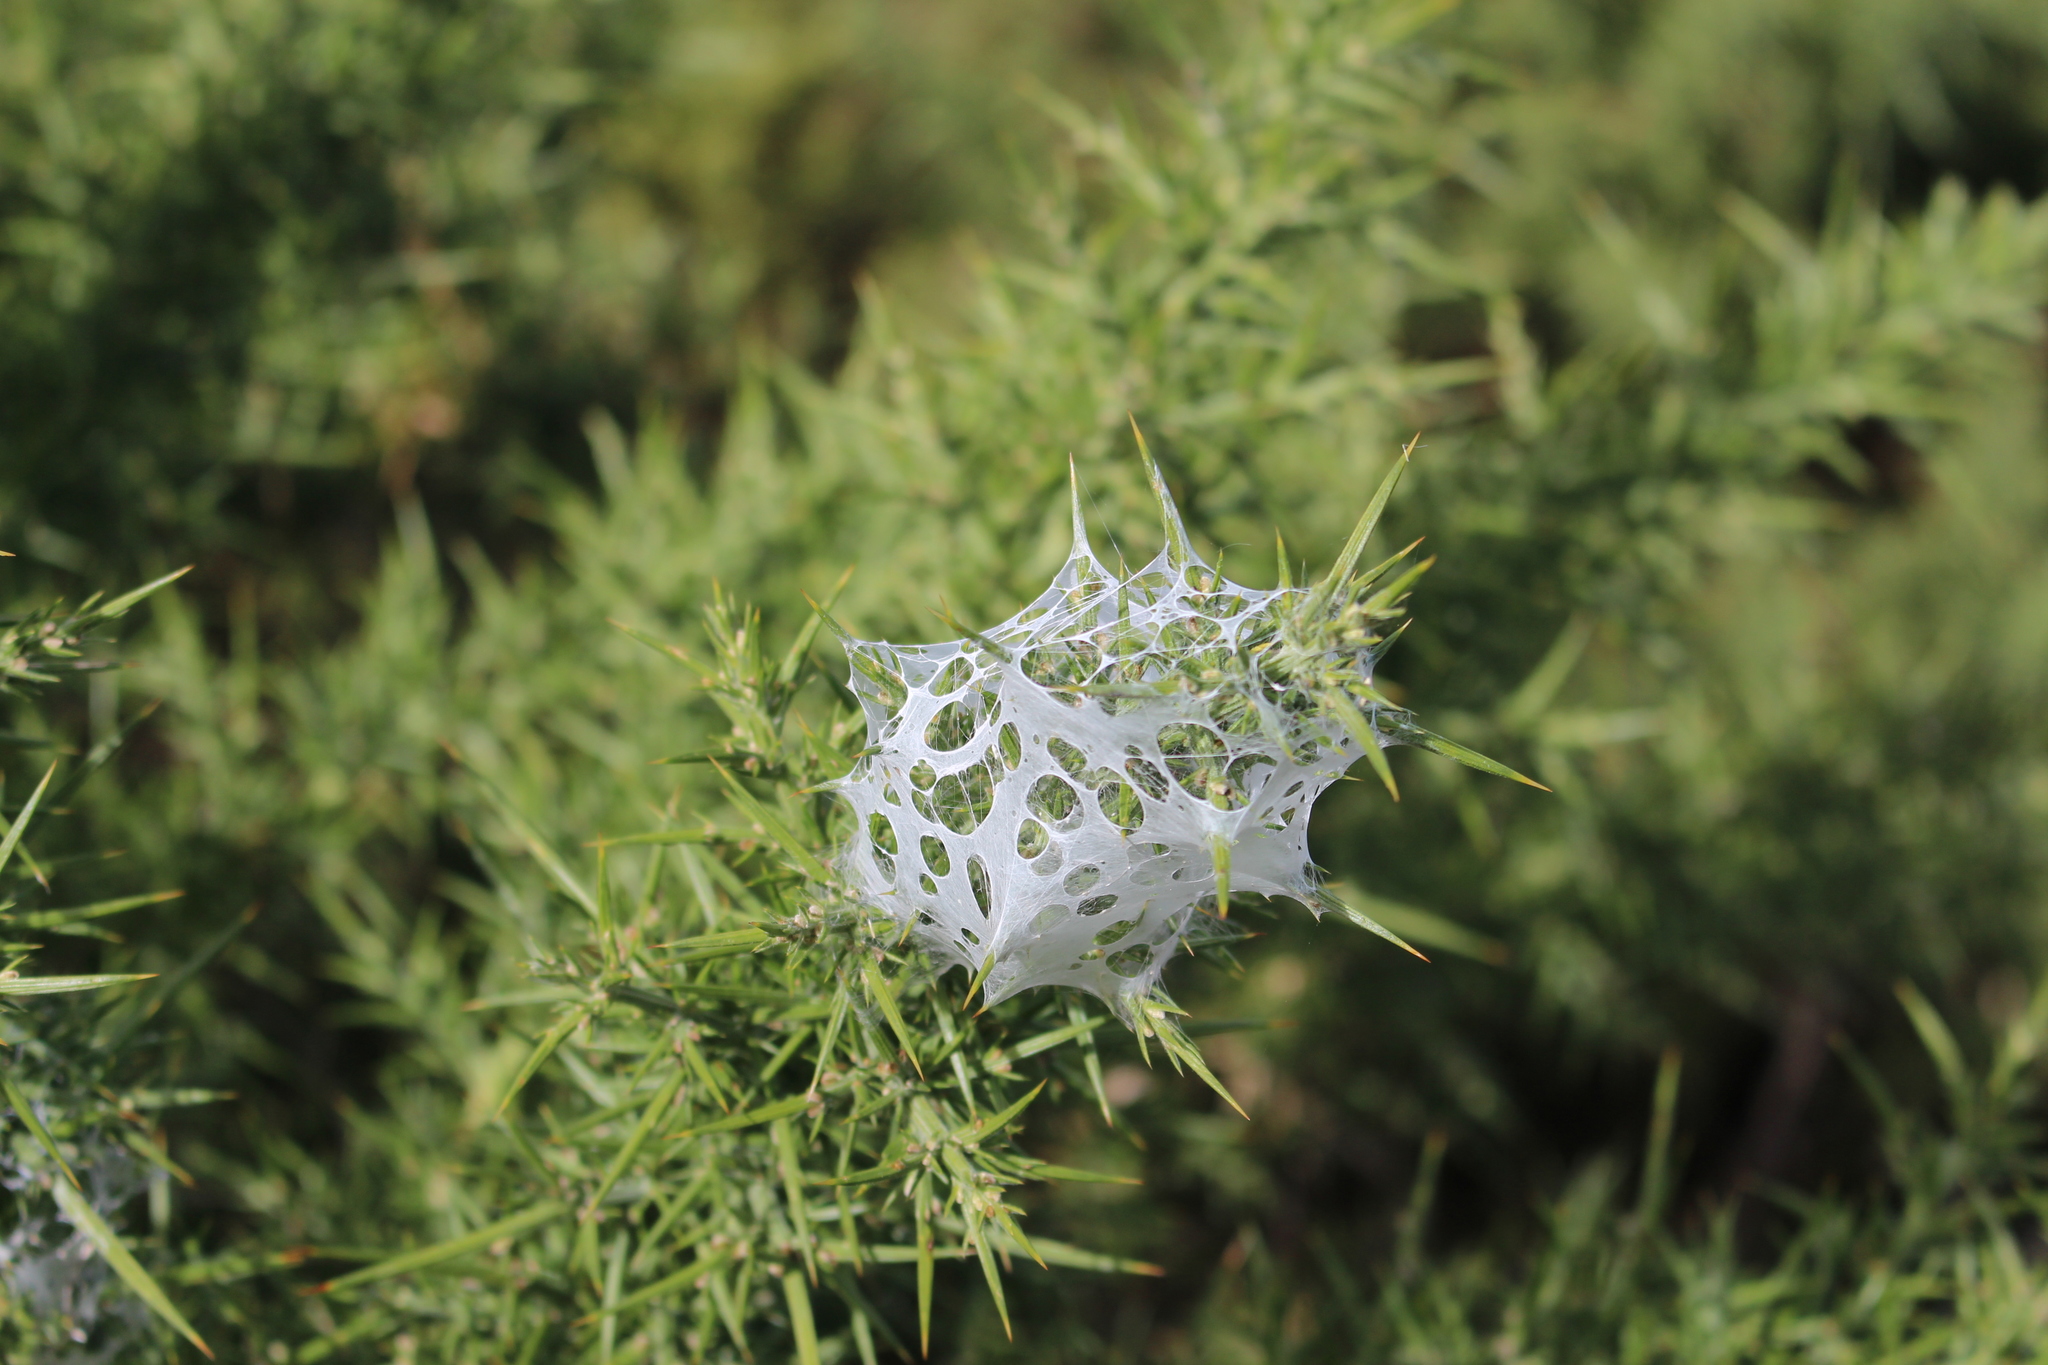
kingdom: Animalia
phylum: Arthropoda
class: Arachnida
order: Araneae
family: Pisauridae
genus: Dolomedes
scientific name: Dolomedes minor
